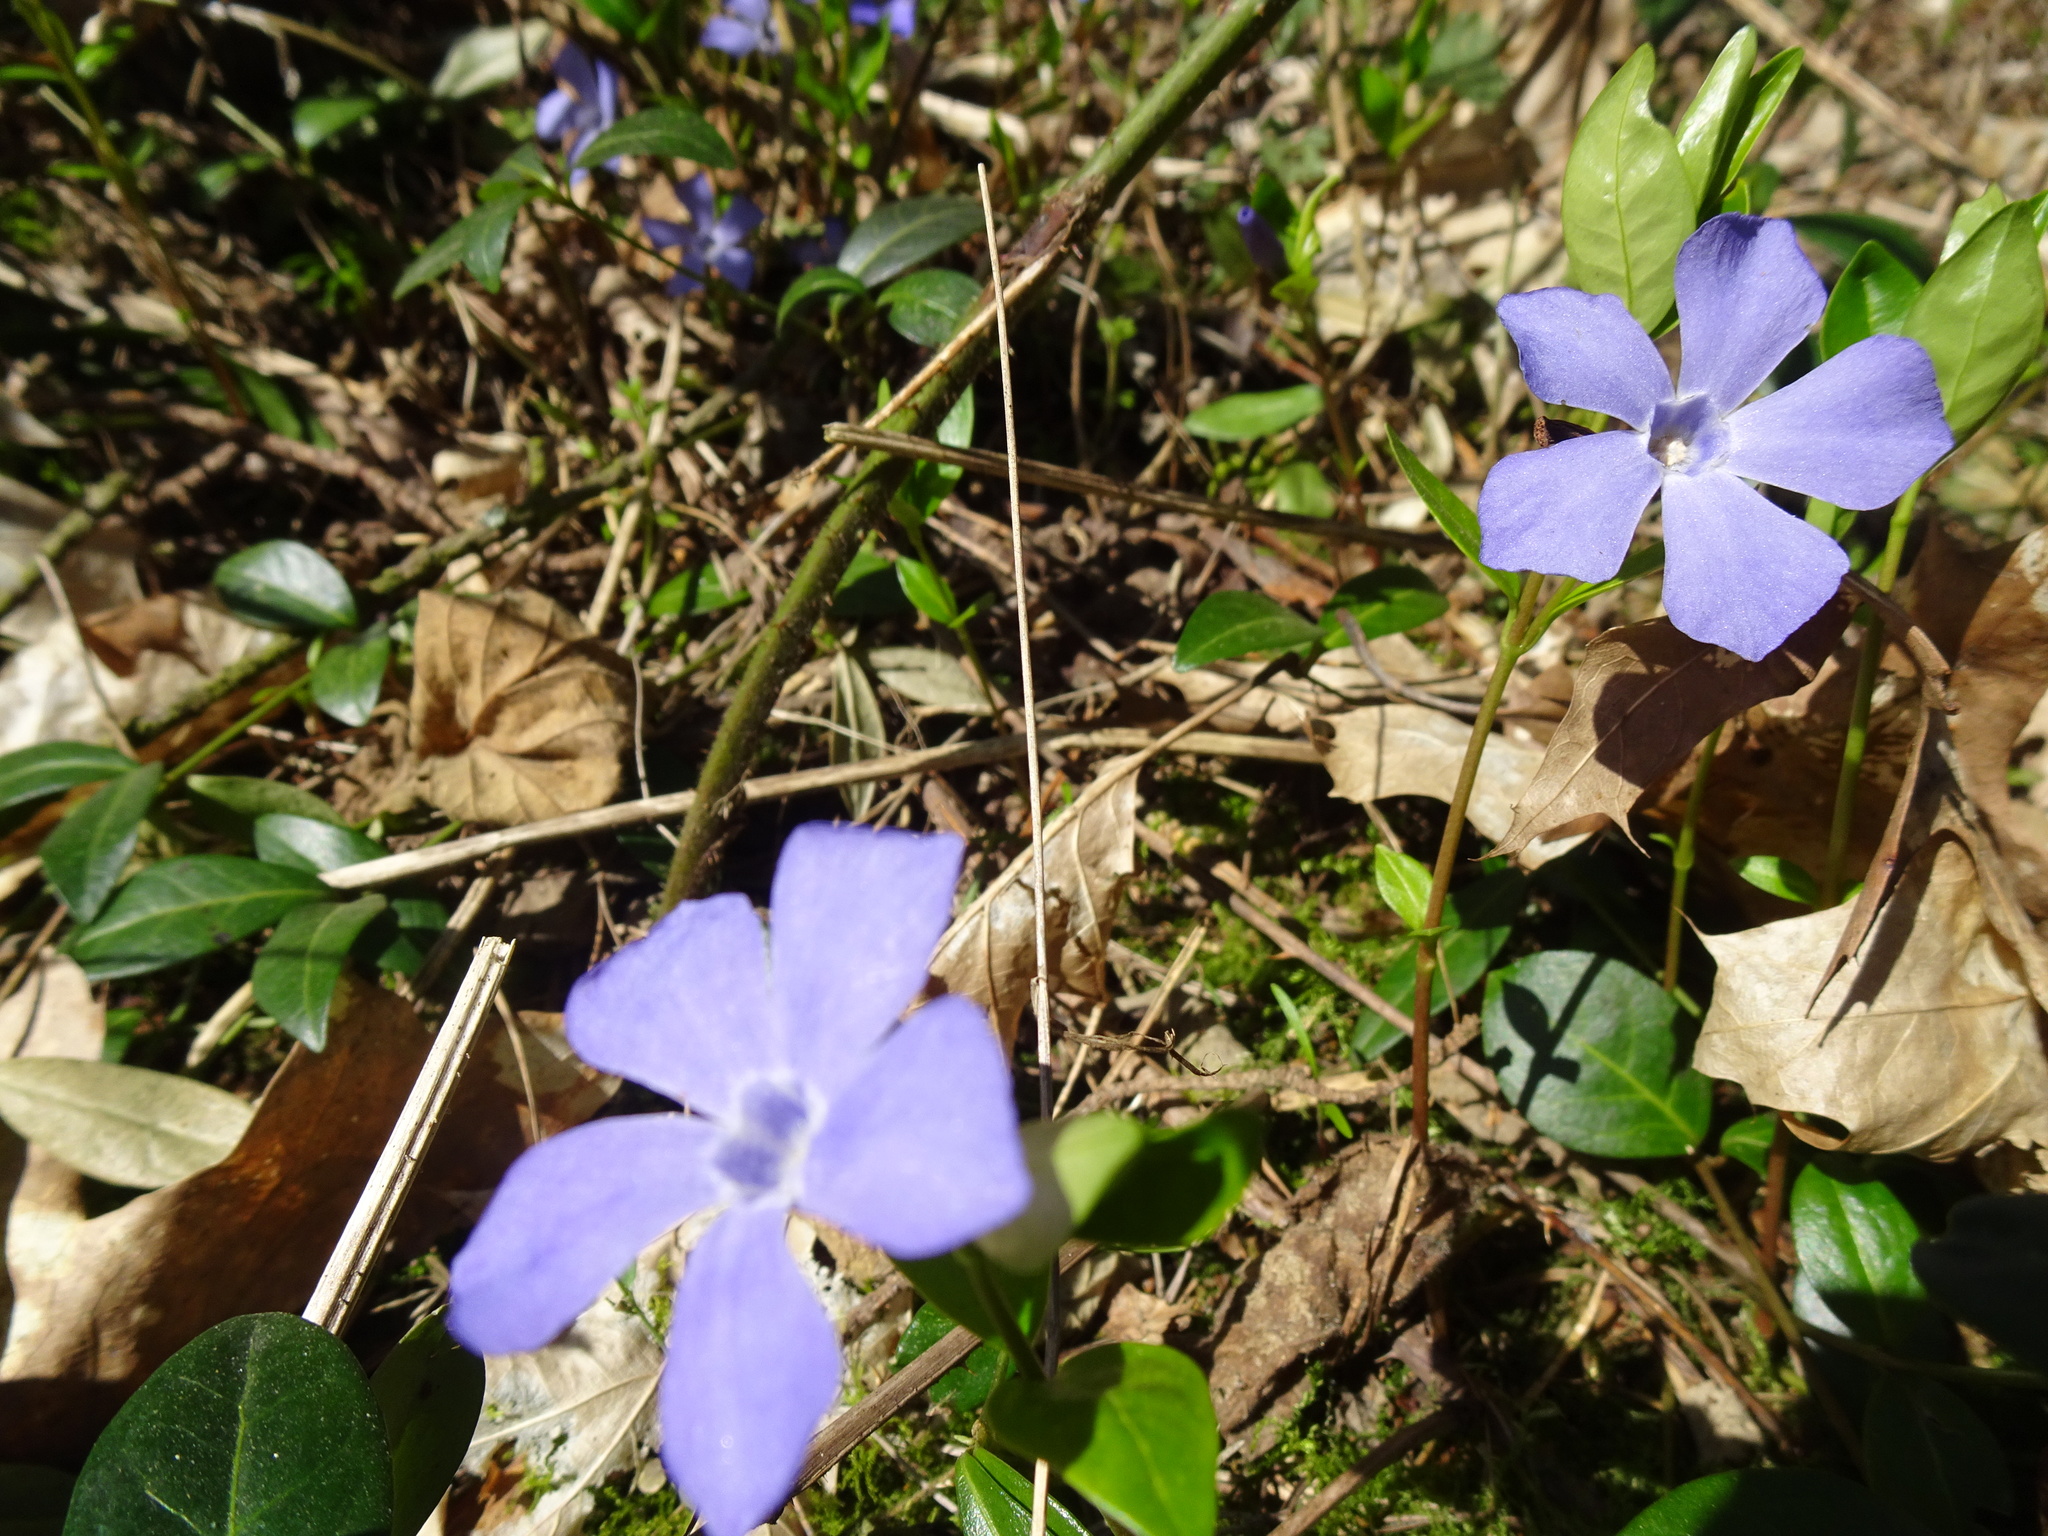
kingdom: Plantae
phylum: Tracheophyta
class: Magnoliopsida
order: Gentianales
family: Apocynaceae
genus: Vinca
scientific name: Vinca minor
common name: Lesser periwinkle
